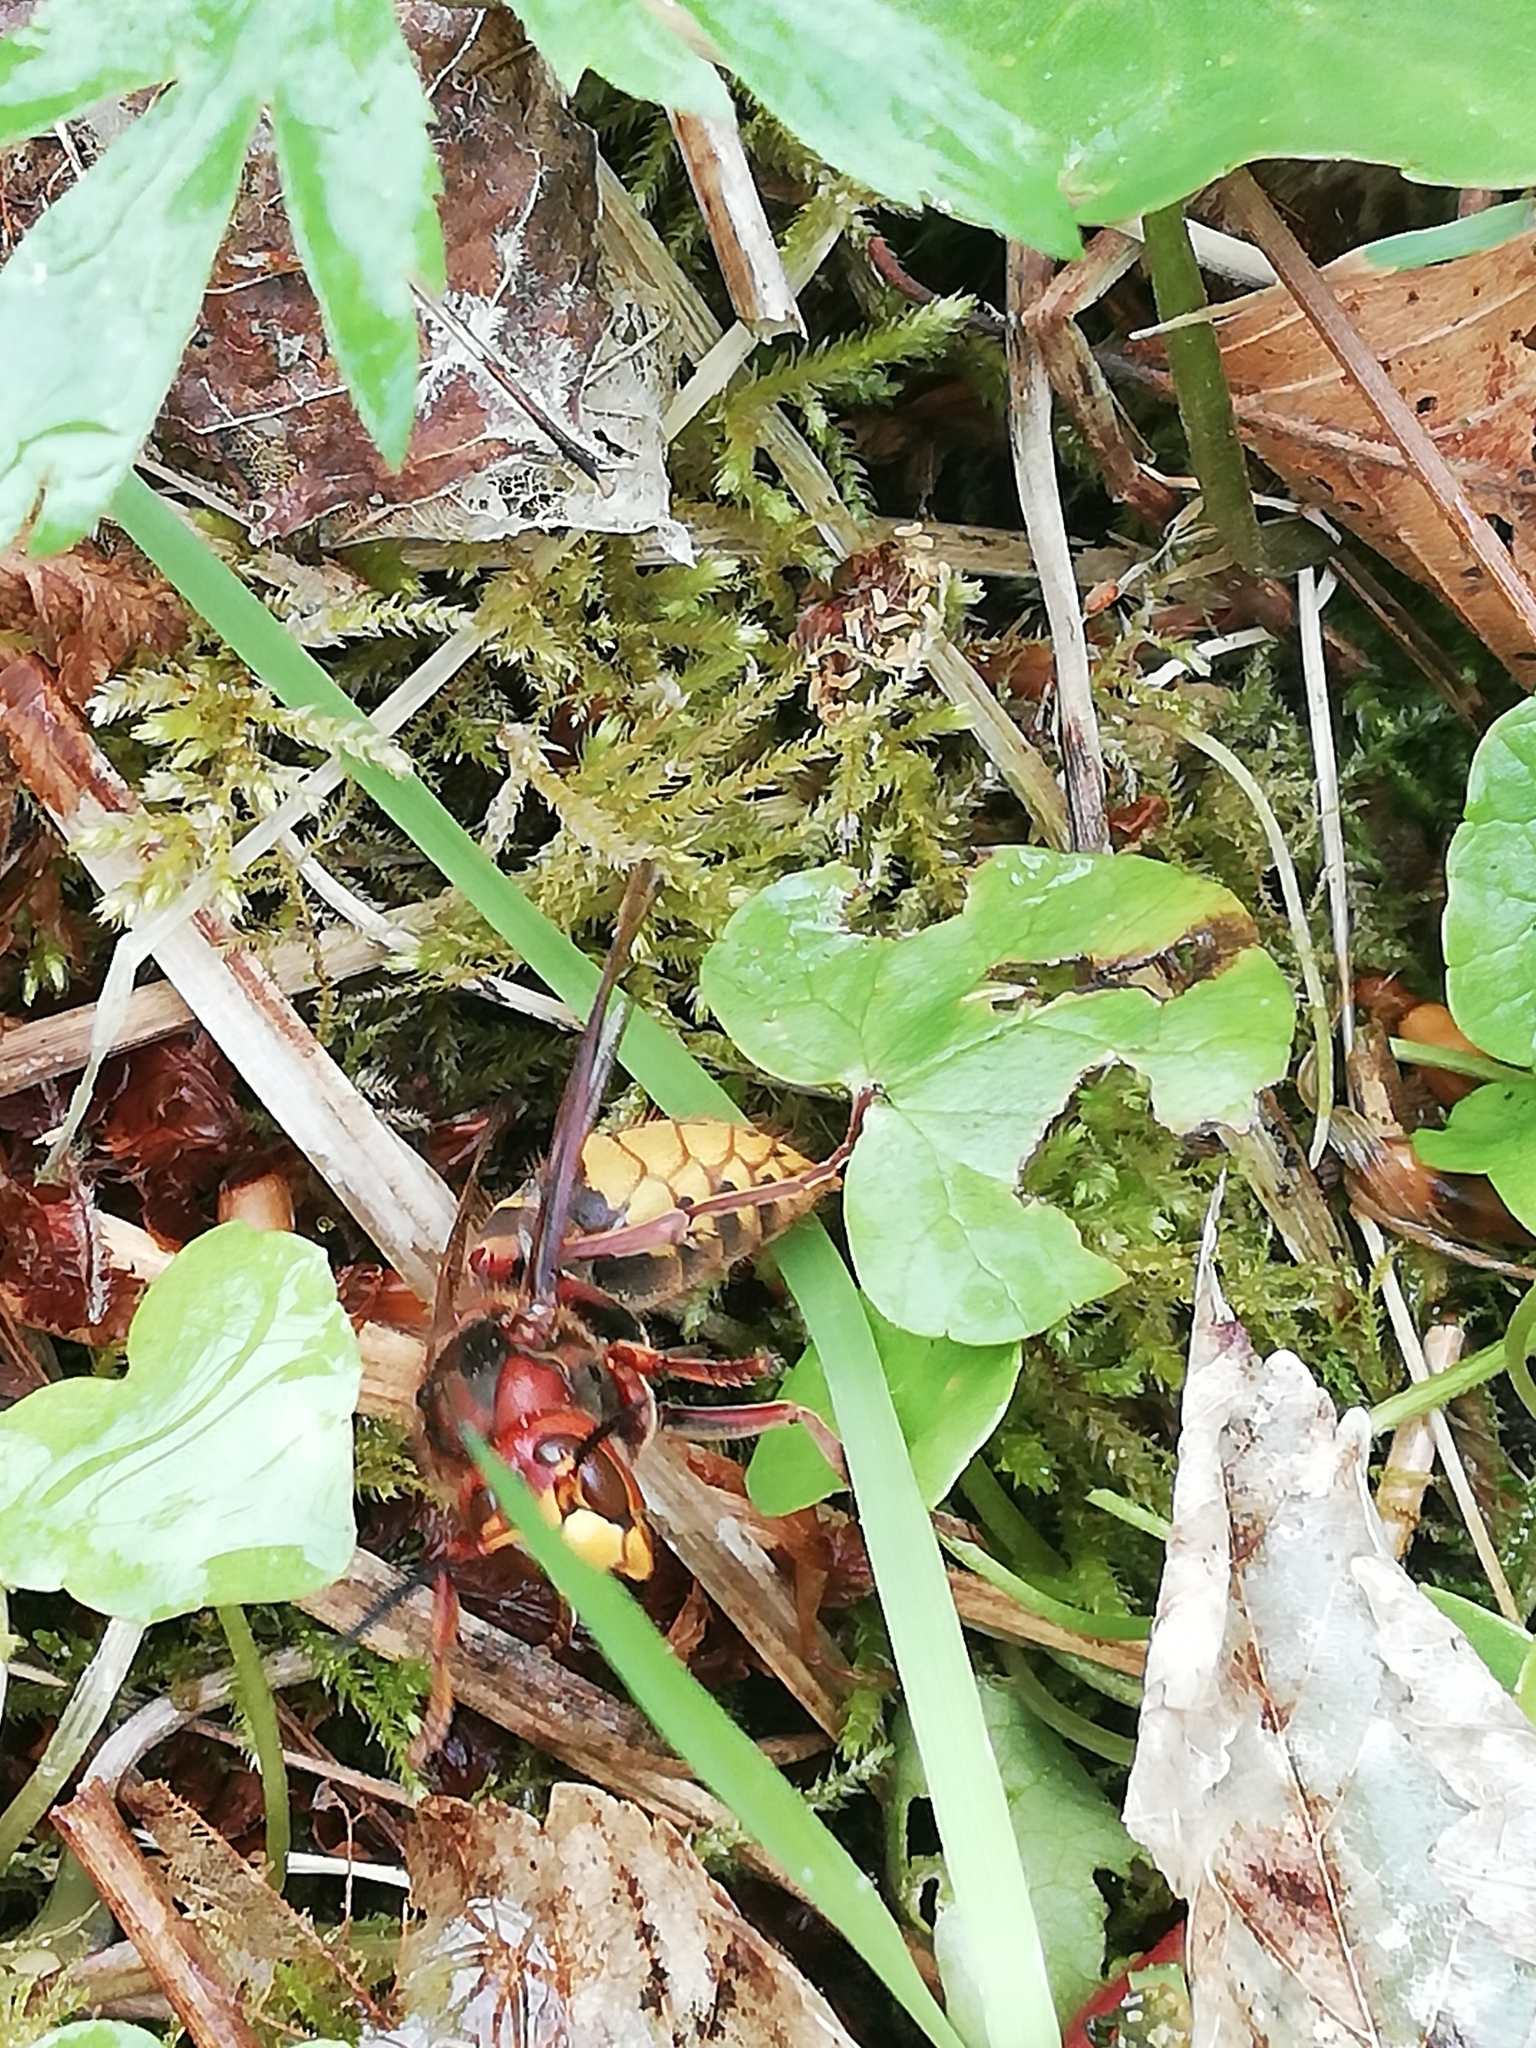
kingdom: Animalia
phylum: Arthropoda
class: Insecta
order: Hymenoptera
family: Vespidae
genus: Vespa
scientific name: Vespa crabro
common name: Hornet
